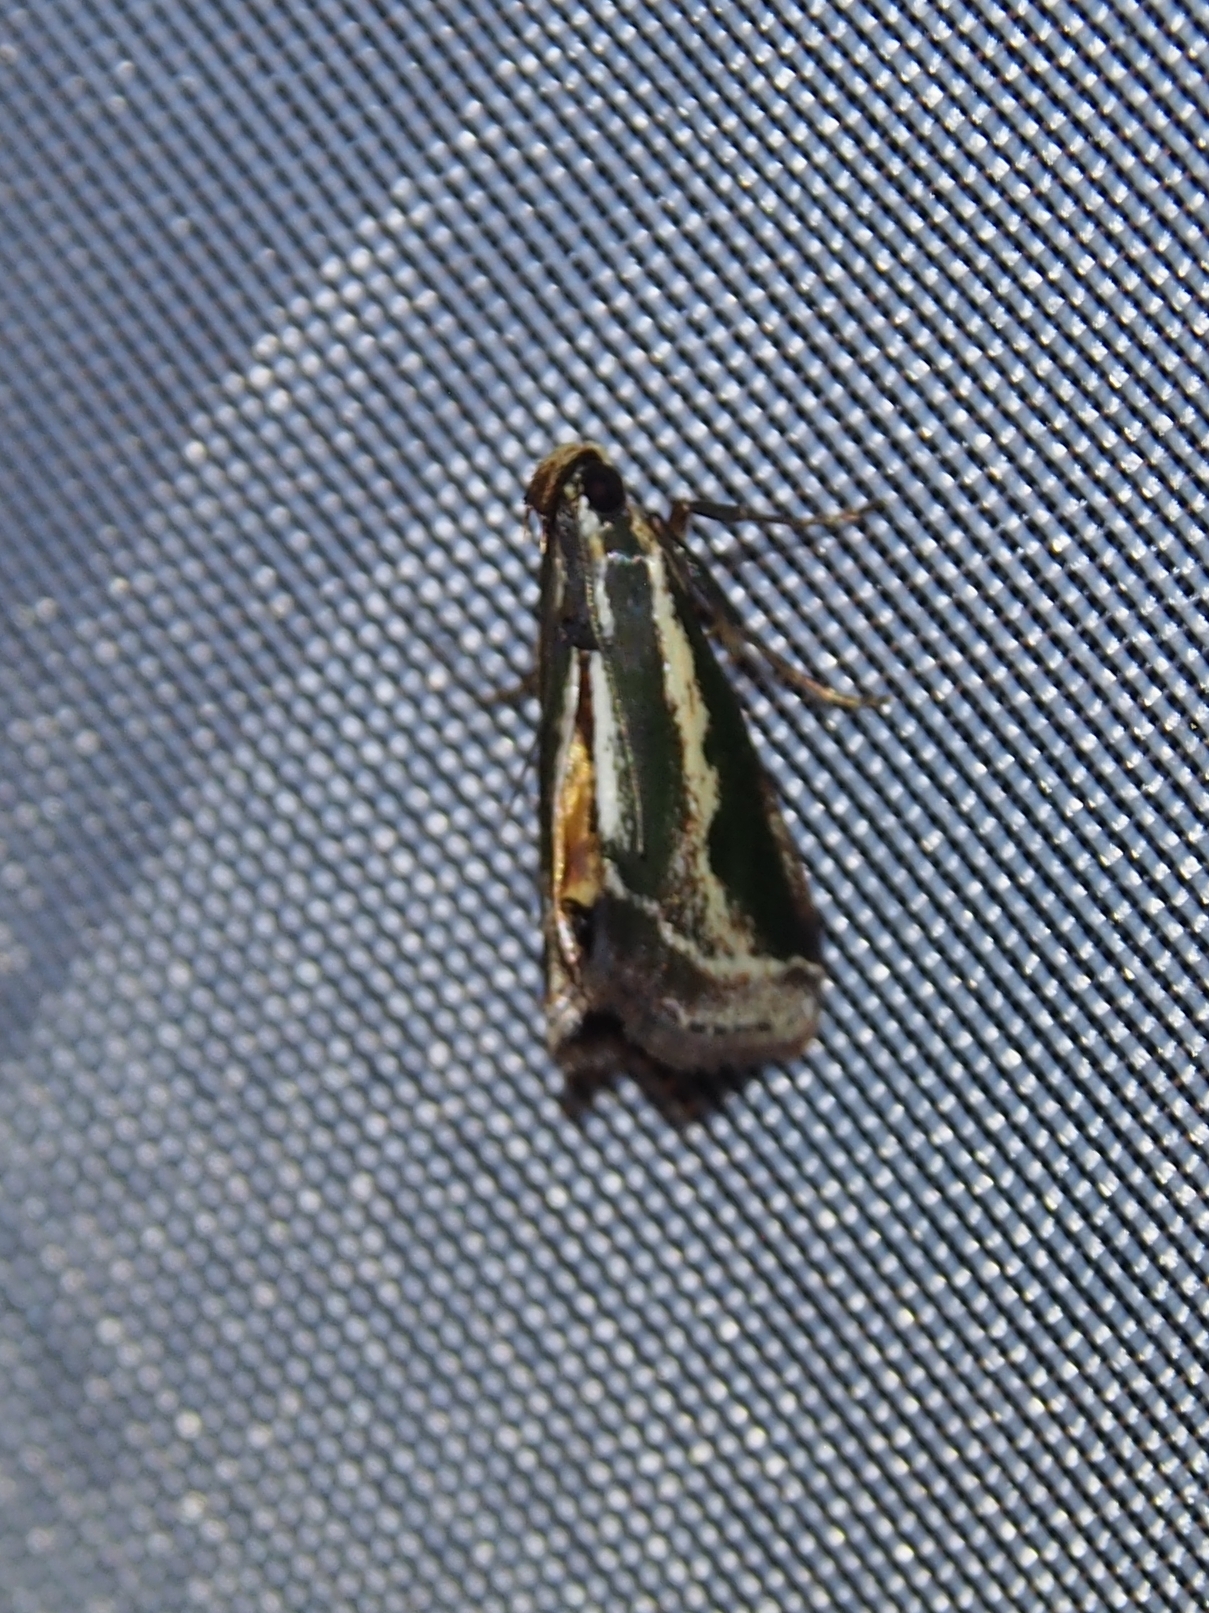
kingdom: Animalia
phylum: Arthropoda
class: Insecta
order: Lepidoptera
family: Pyralidae
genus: Anarnatula
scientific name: Anarnatula subflavida
